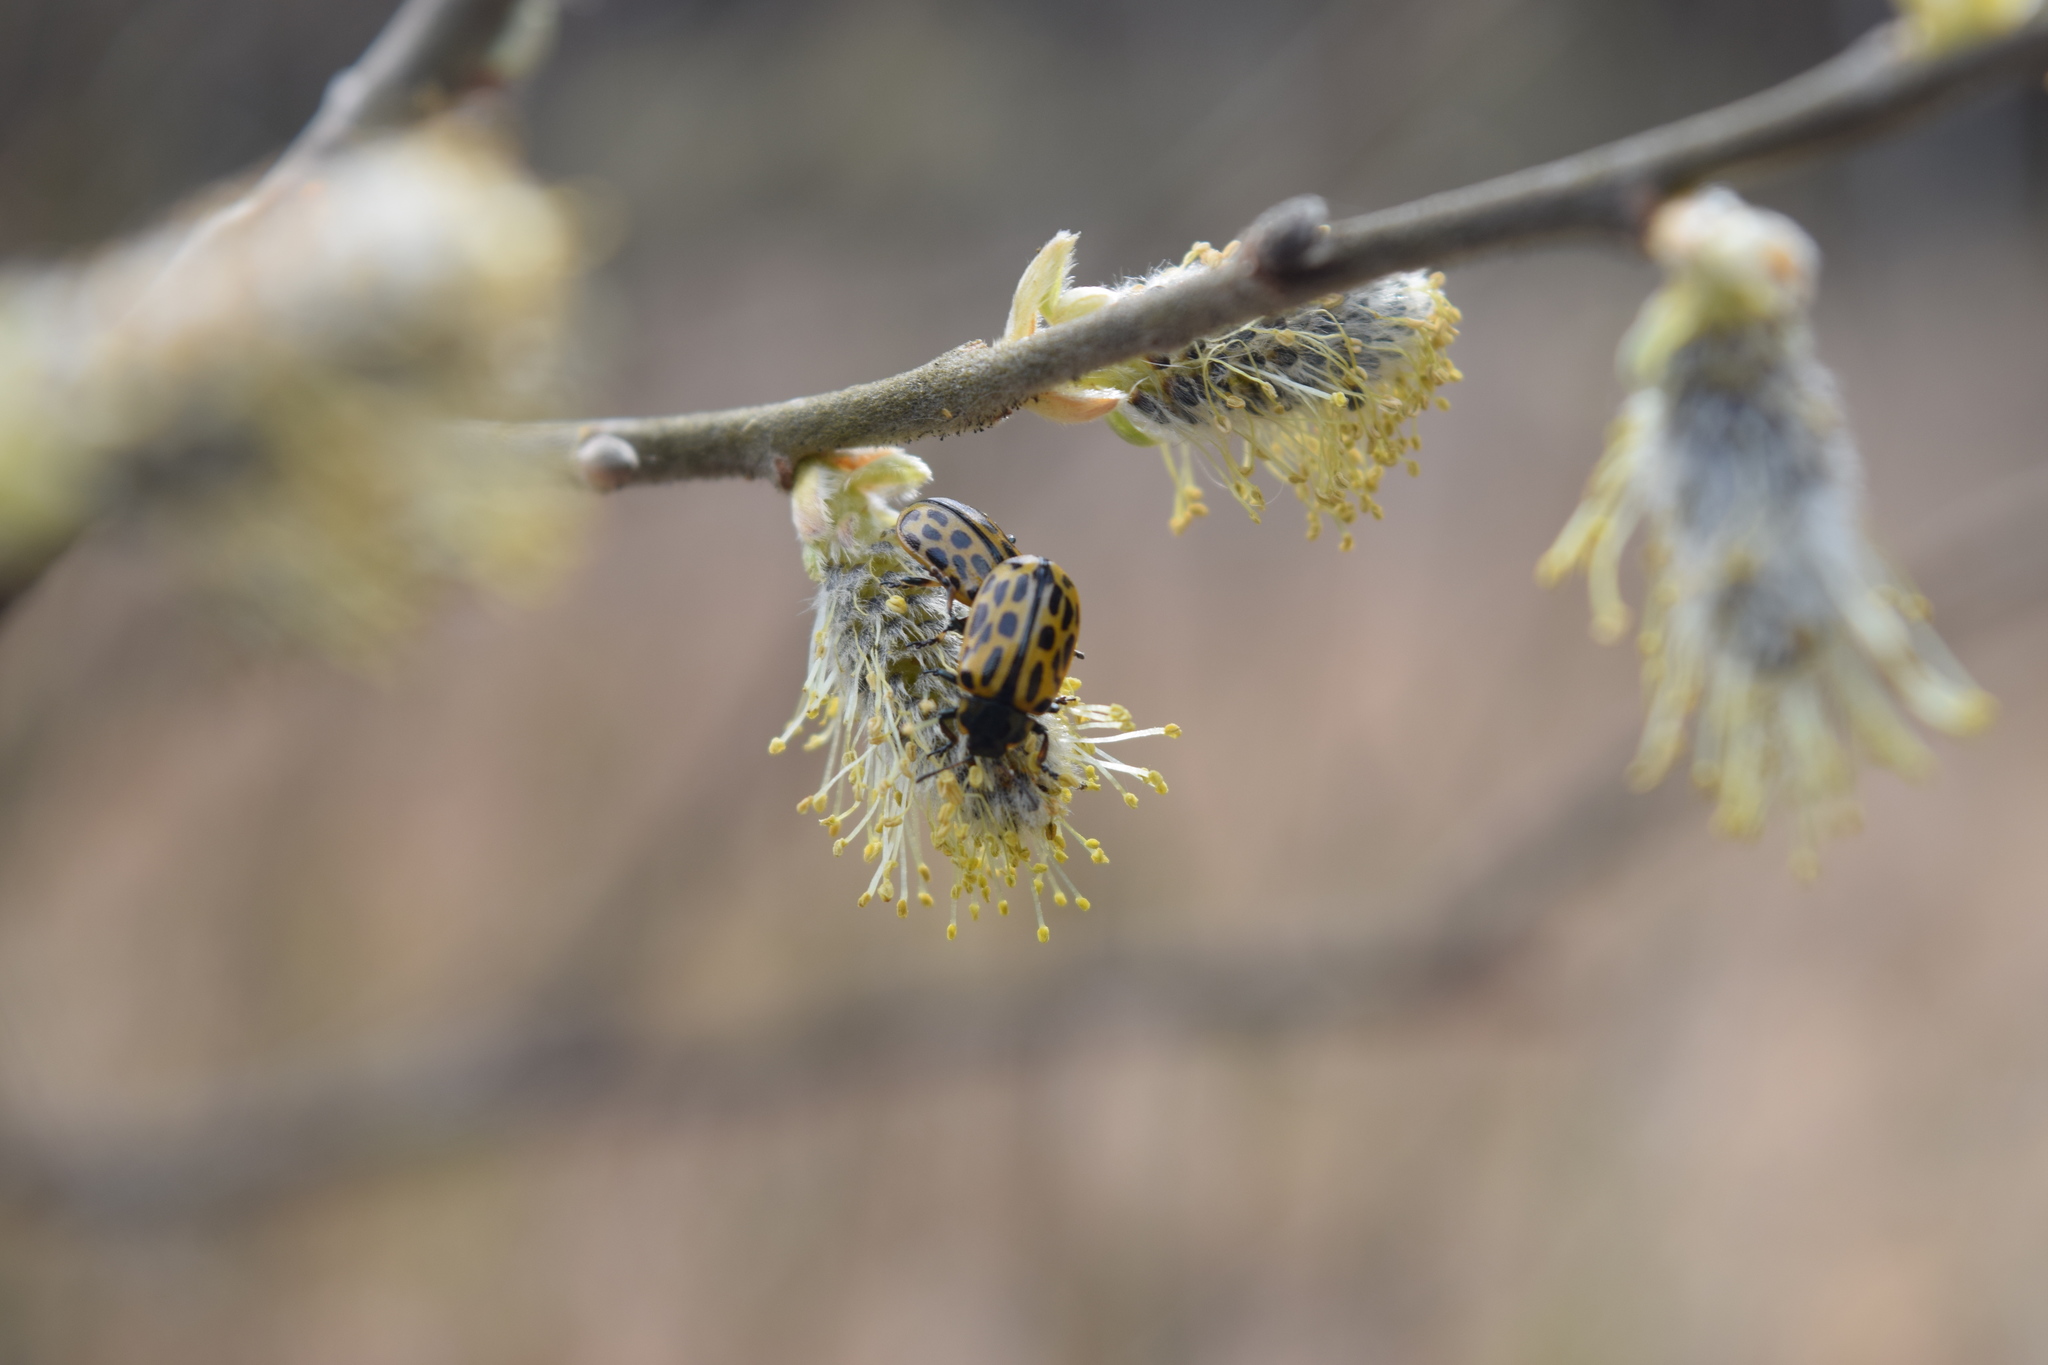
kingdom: Animalia
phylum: Arthropoda
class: Insecta
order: Coleoptera
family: Chrysomelidae
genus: Chrysomela
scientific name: Chrysomela vigintipunctata
